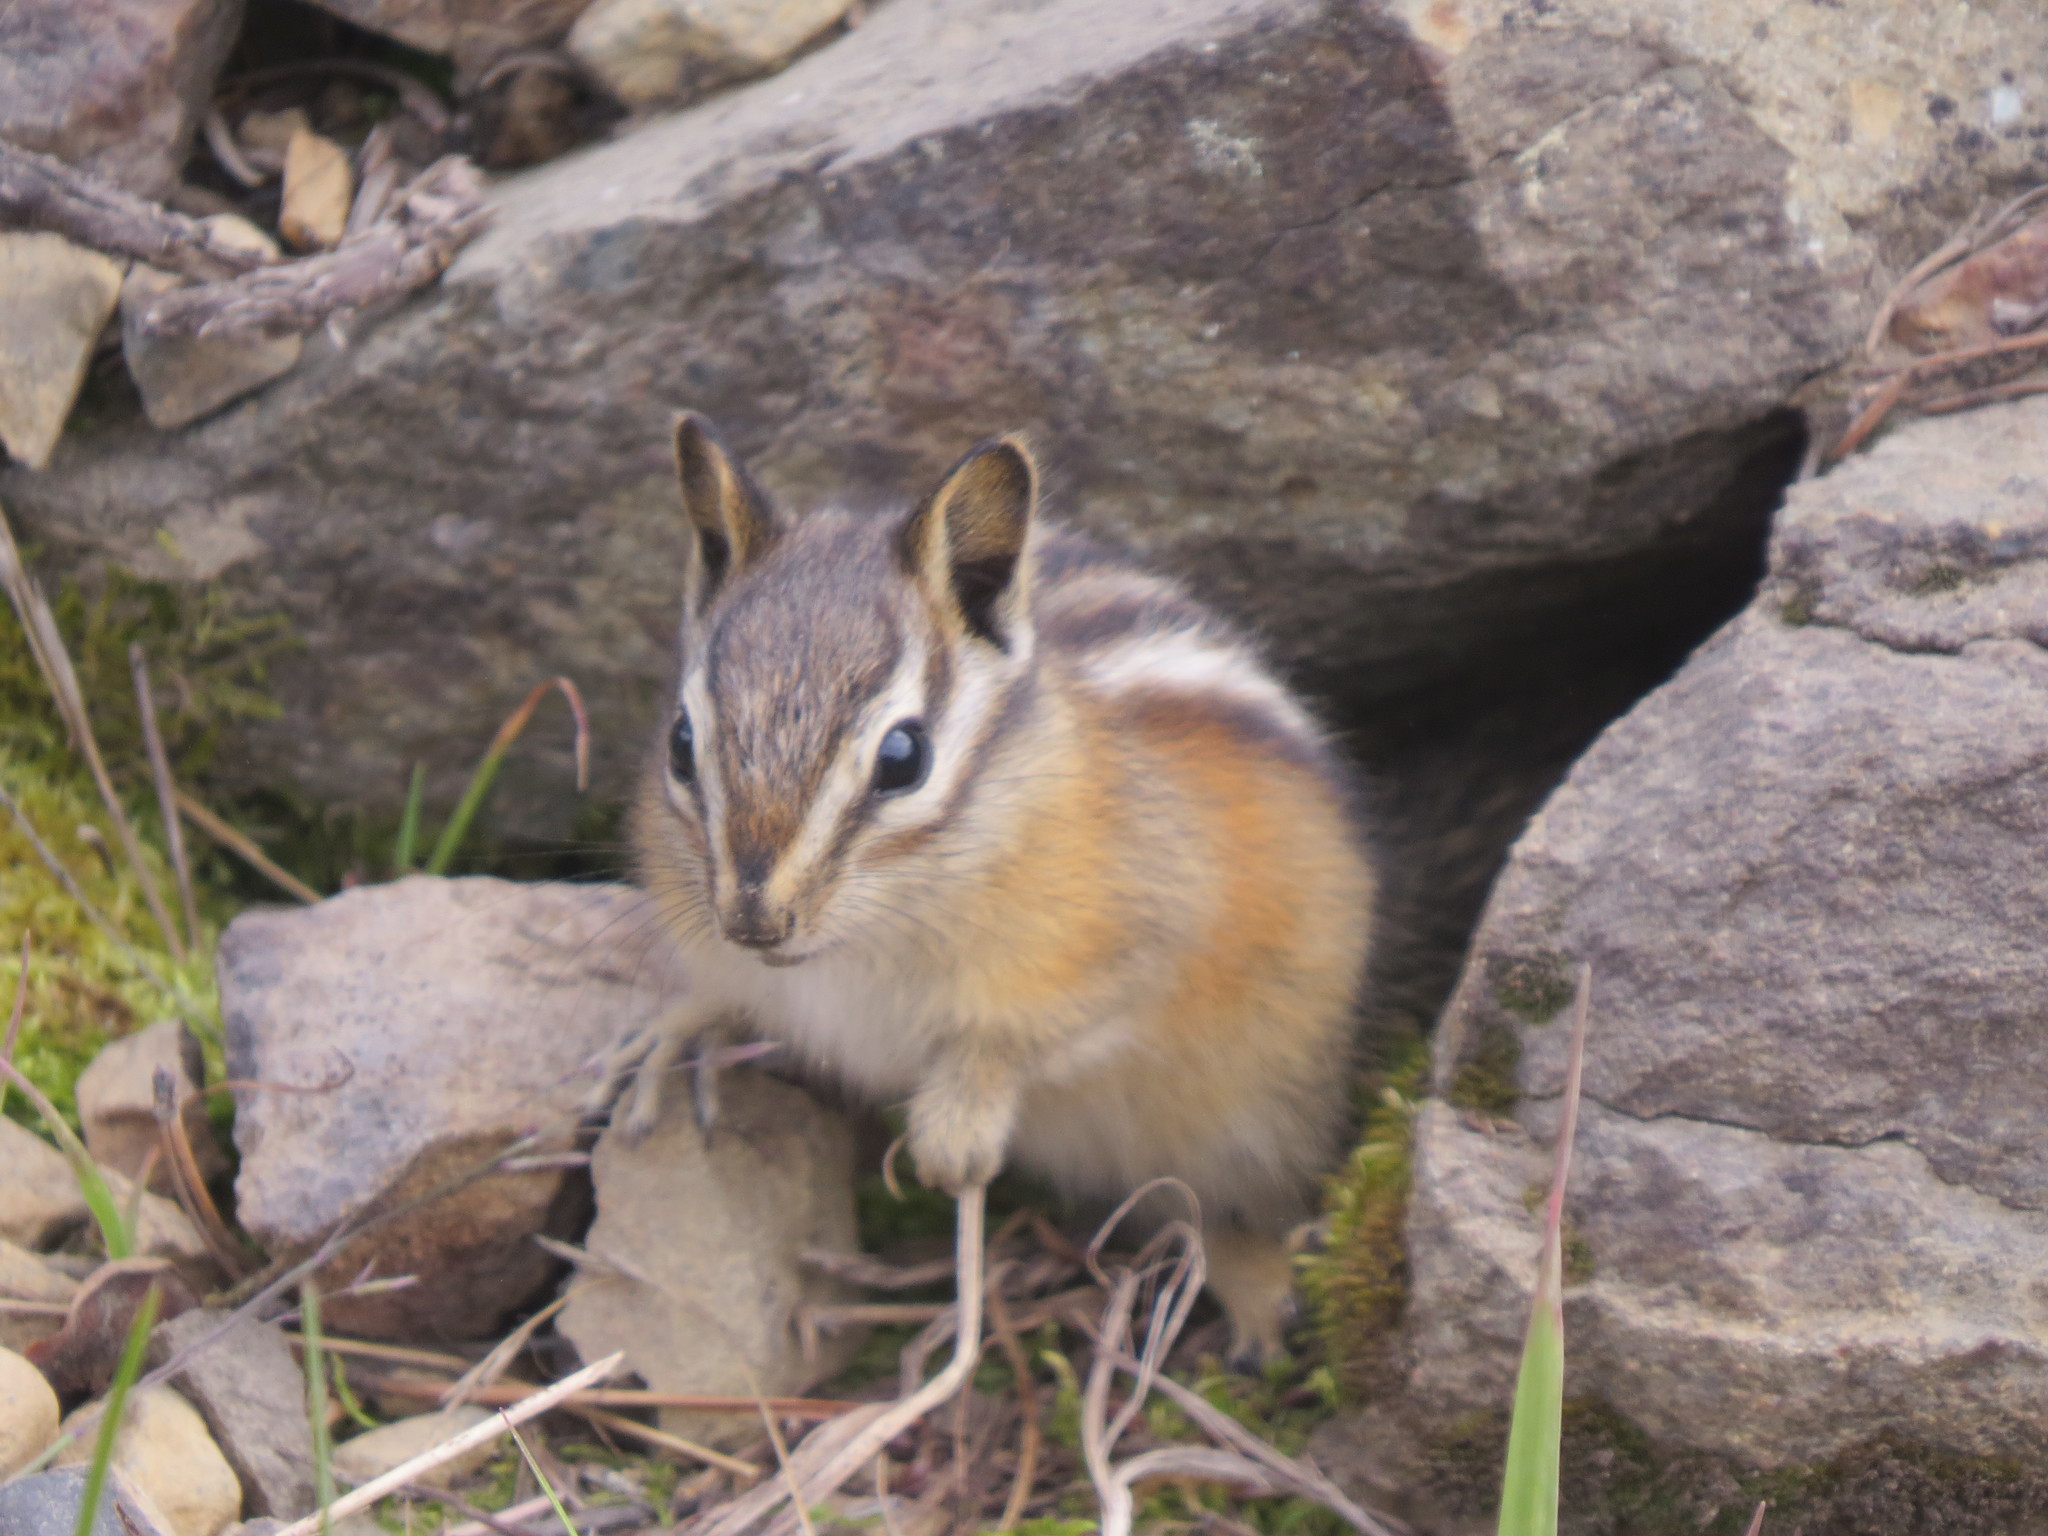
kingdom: Animalia
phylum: Chordata
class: Mammalia
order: Rodentia
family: Sciuridae
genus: Tamias
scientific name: Tamias amoenus
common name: Yellow-pine chipmunk
